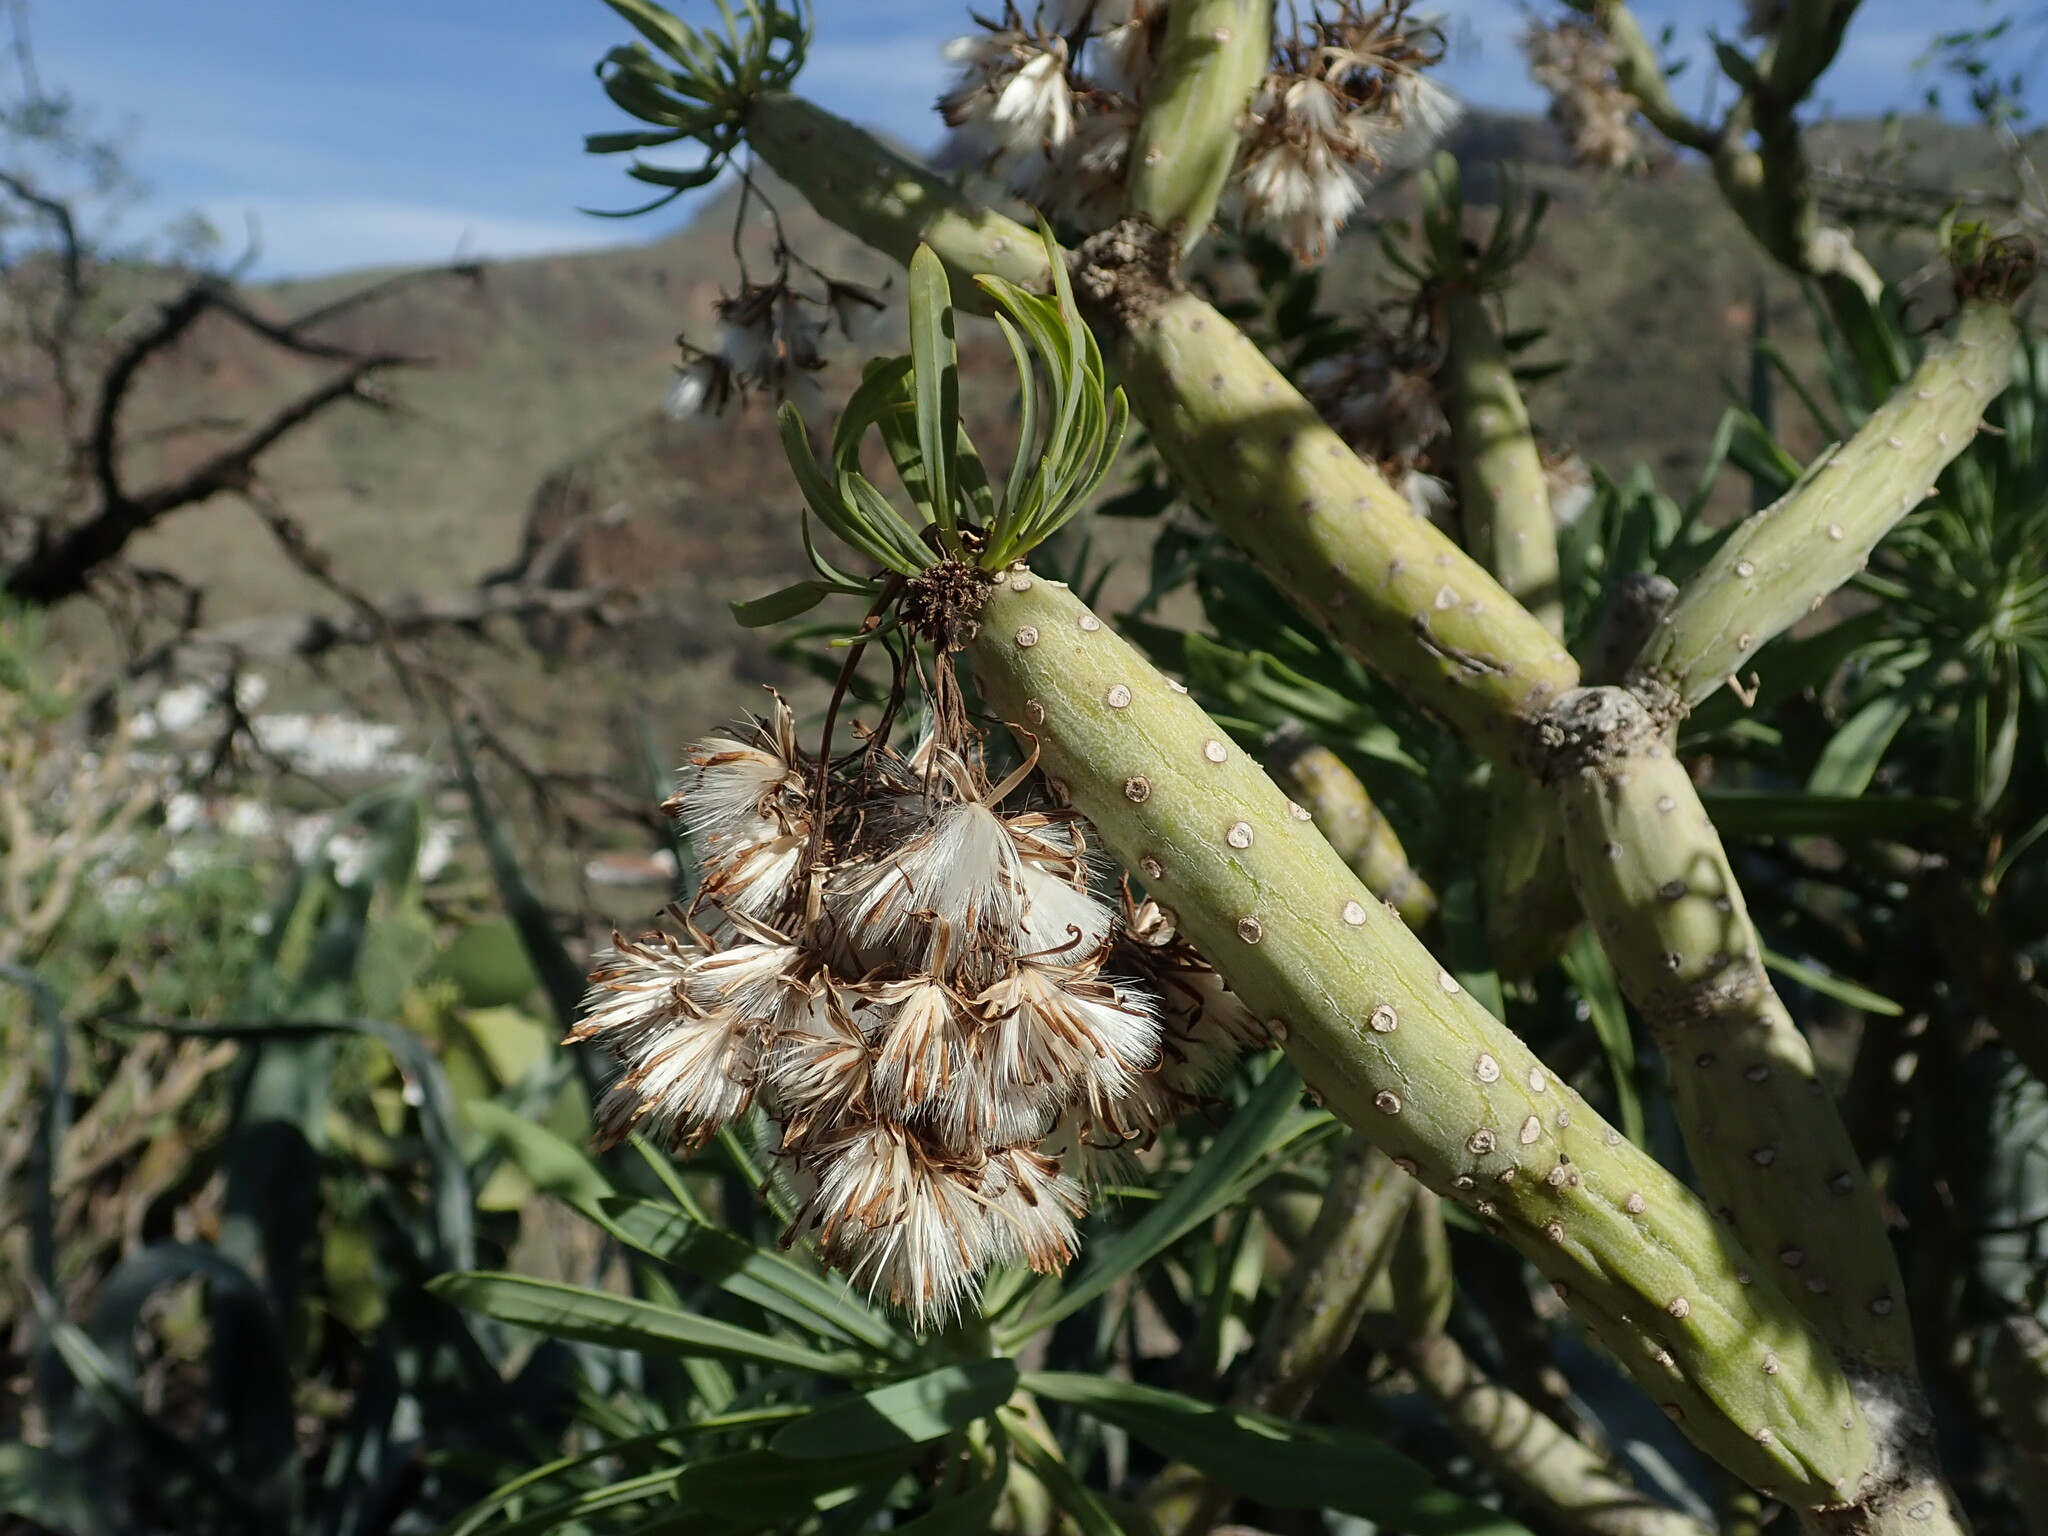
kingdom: Plantae
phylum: Tracheophyta
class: Magnoliopsida
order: Asterales
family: Asteraceae
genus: Kleinia
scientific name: Kleinia neriifolia
